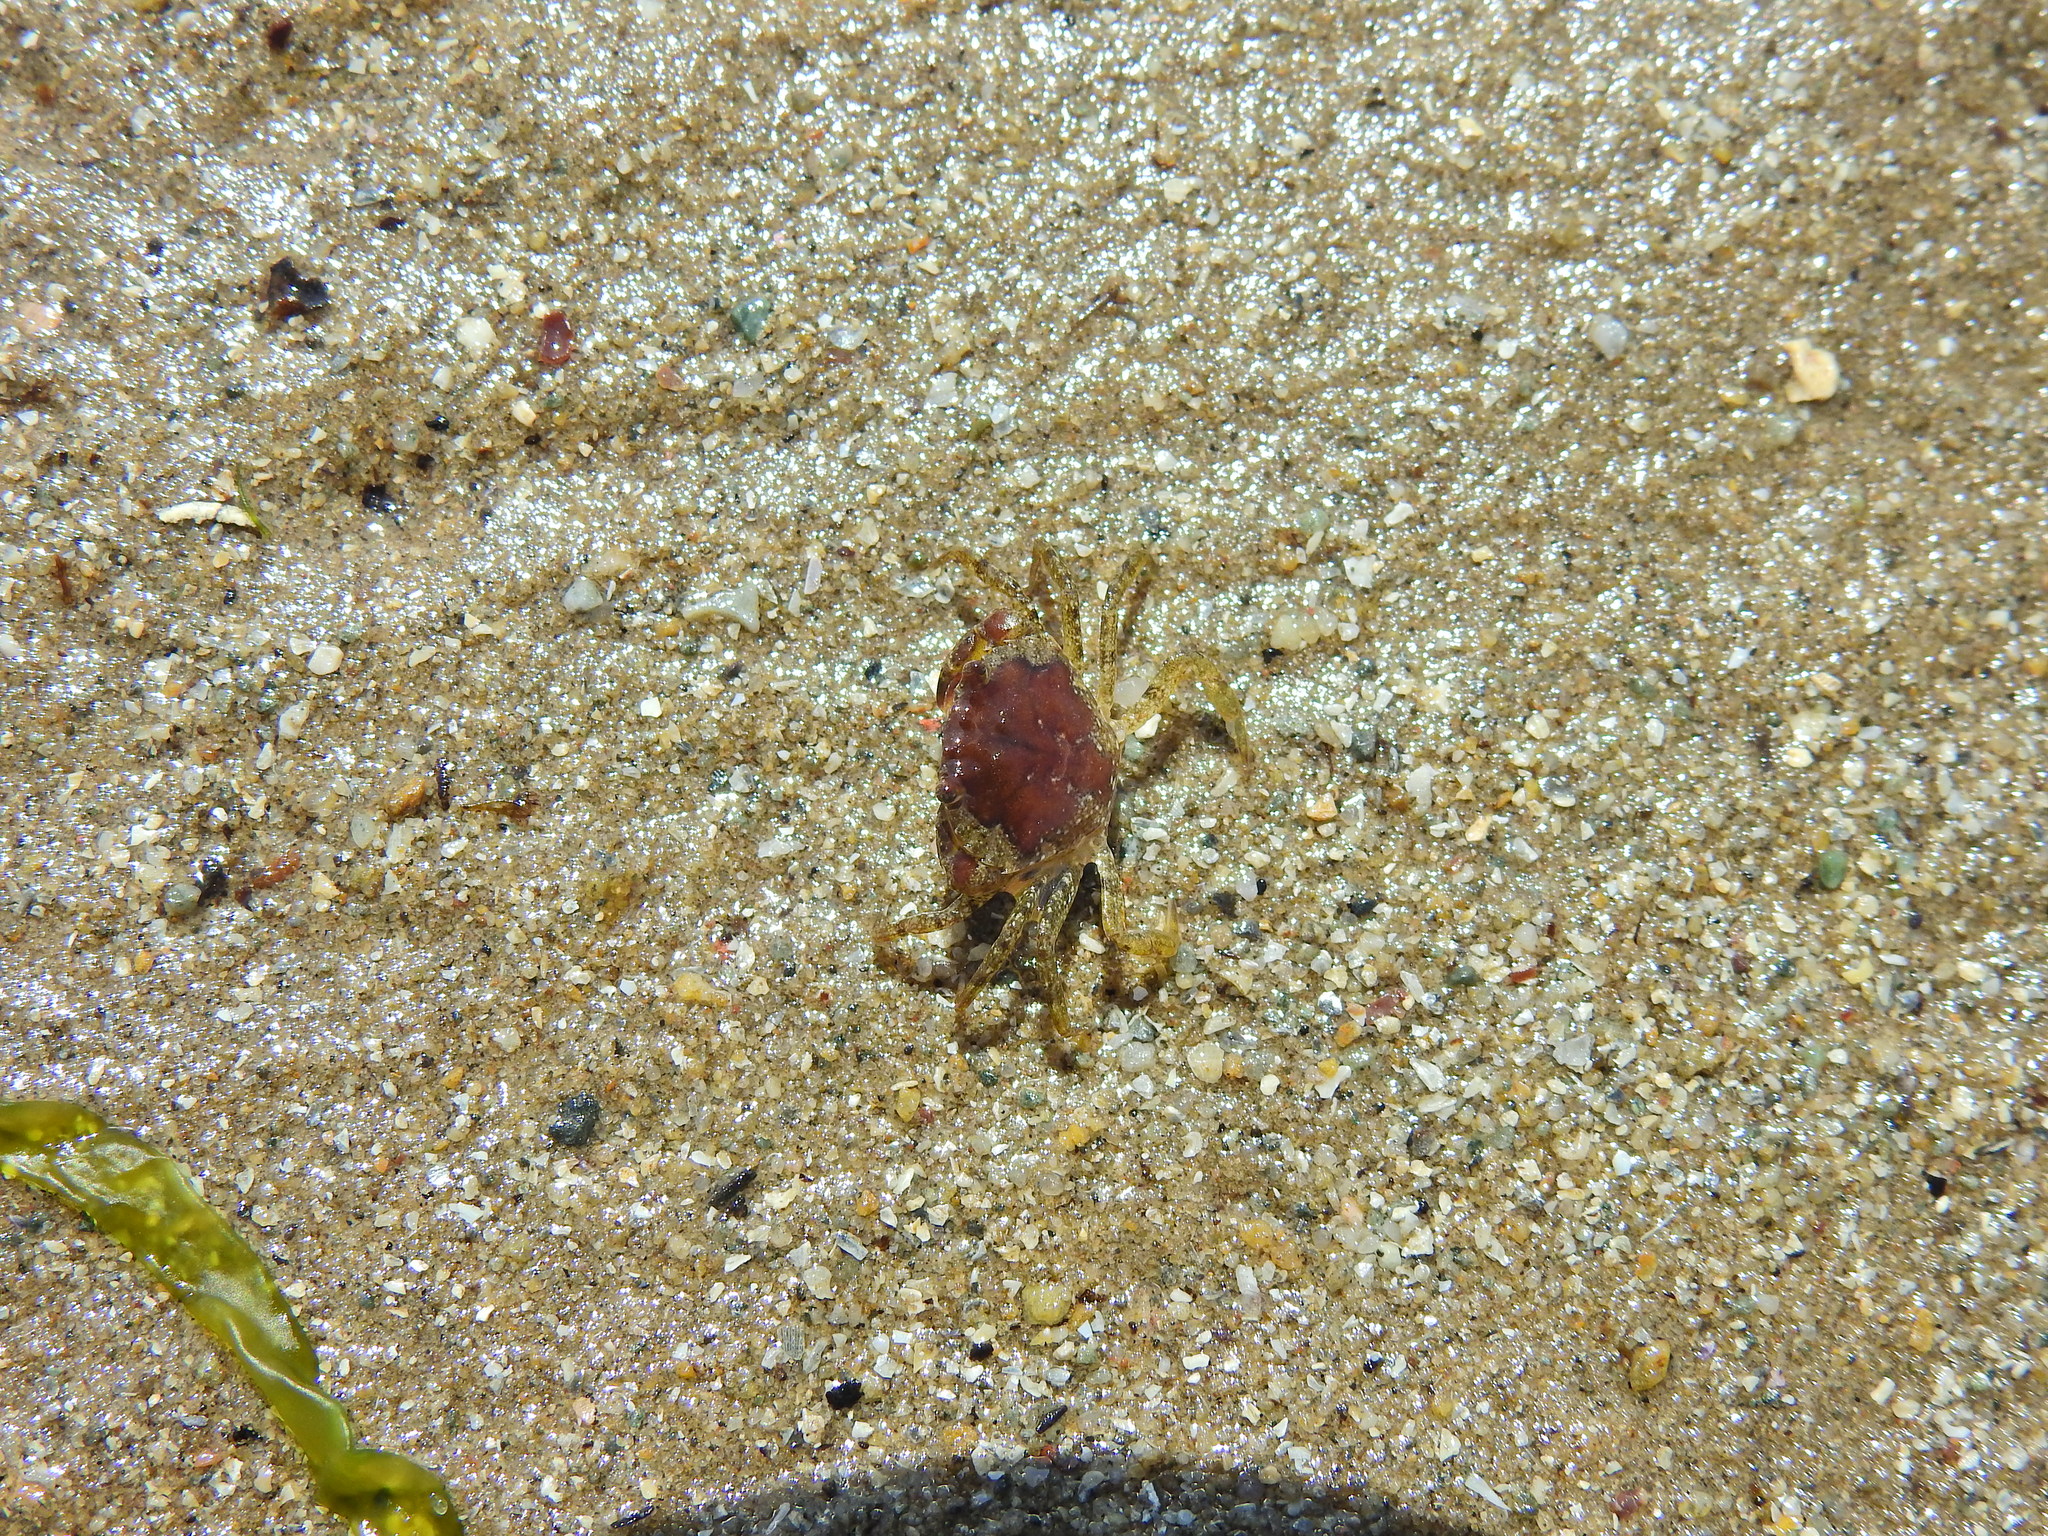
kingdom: Animalia
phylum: Arthropoda
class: Malacostraca
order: Decapoda
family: Carcinidae
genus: Carcinus
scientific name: Carcinus maenas
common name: European green crab
